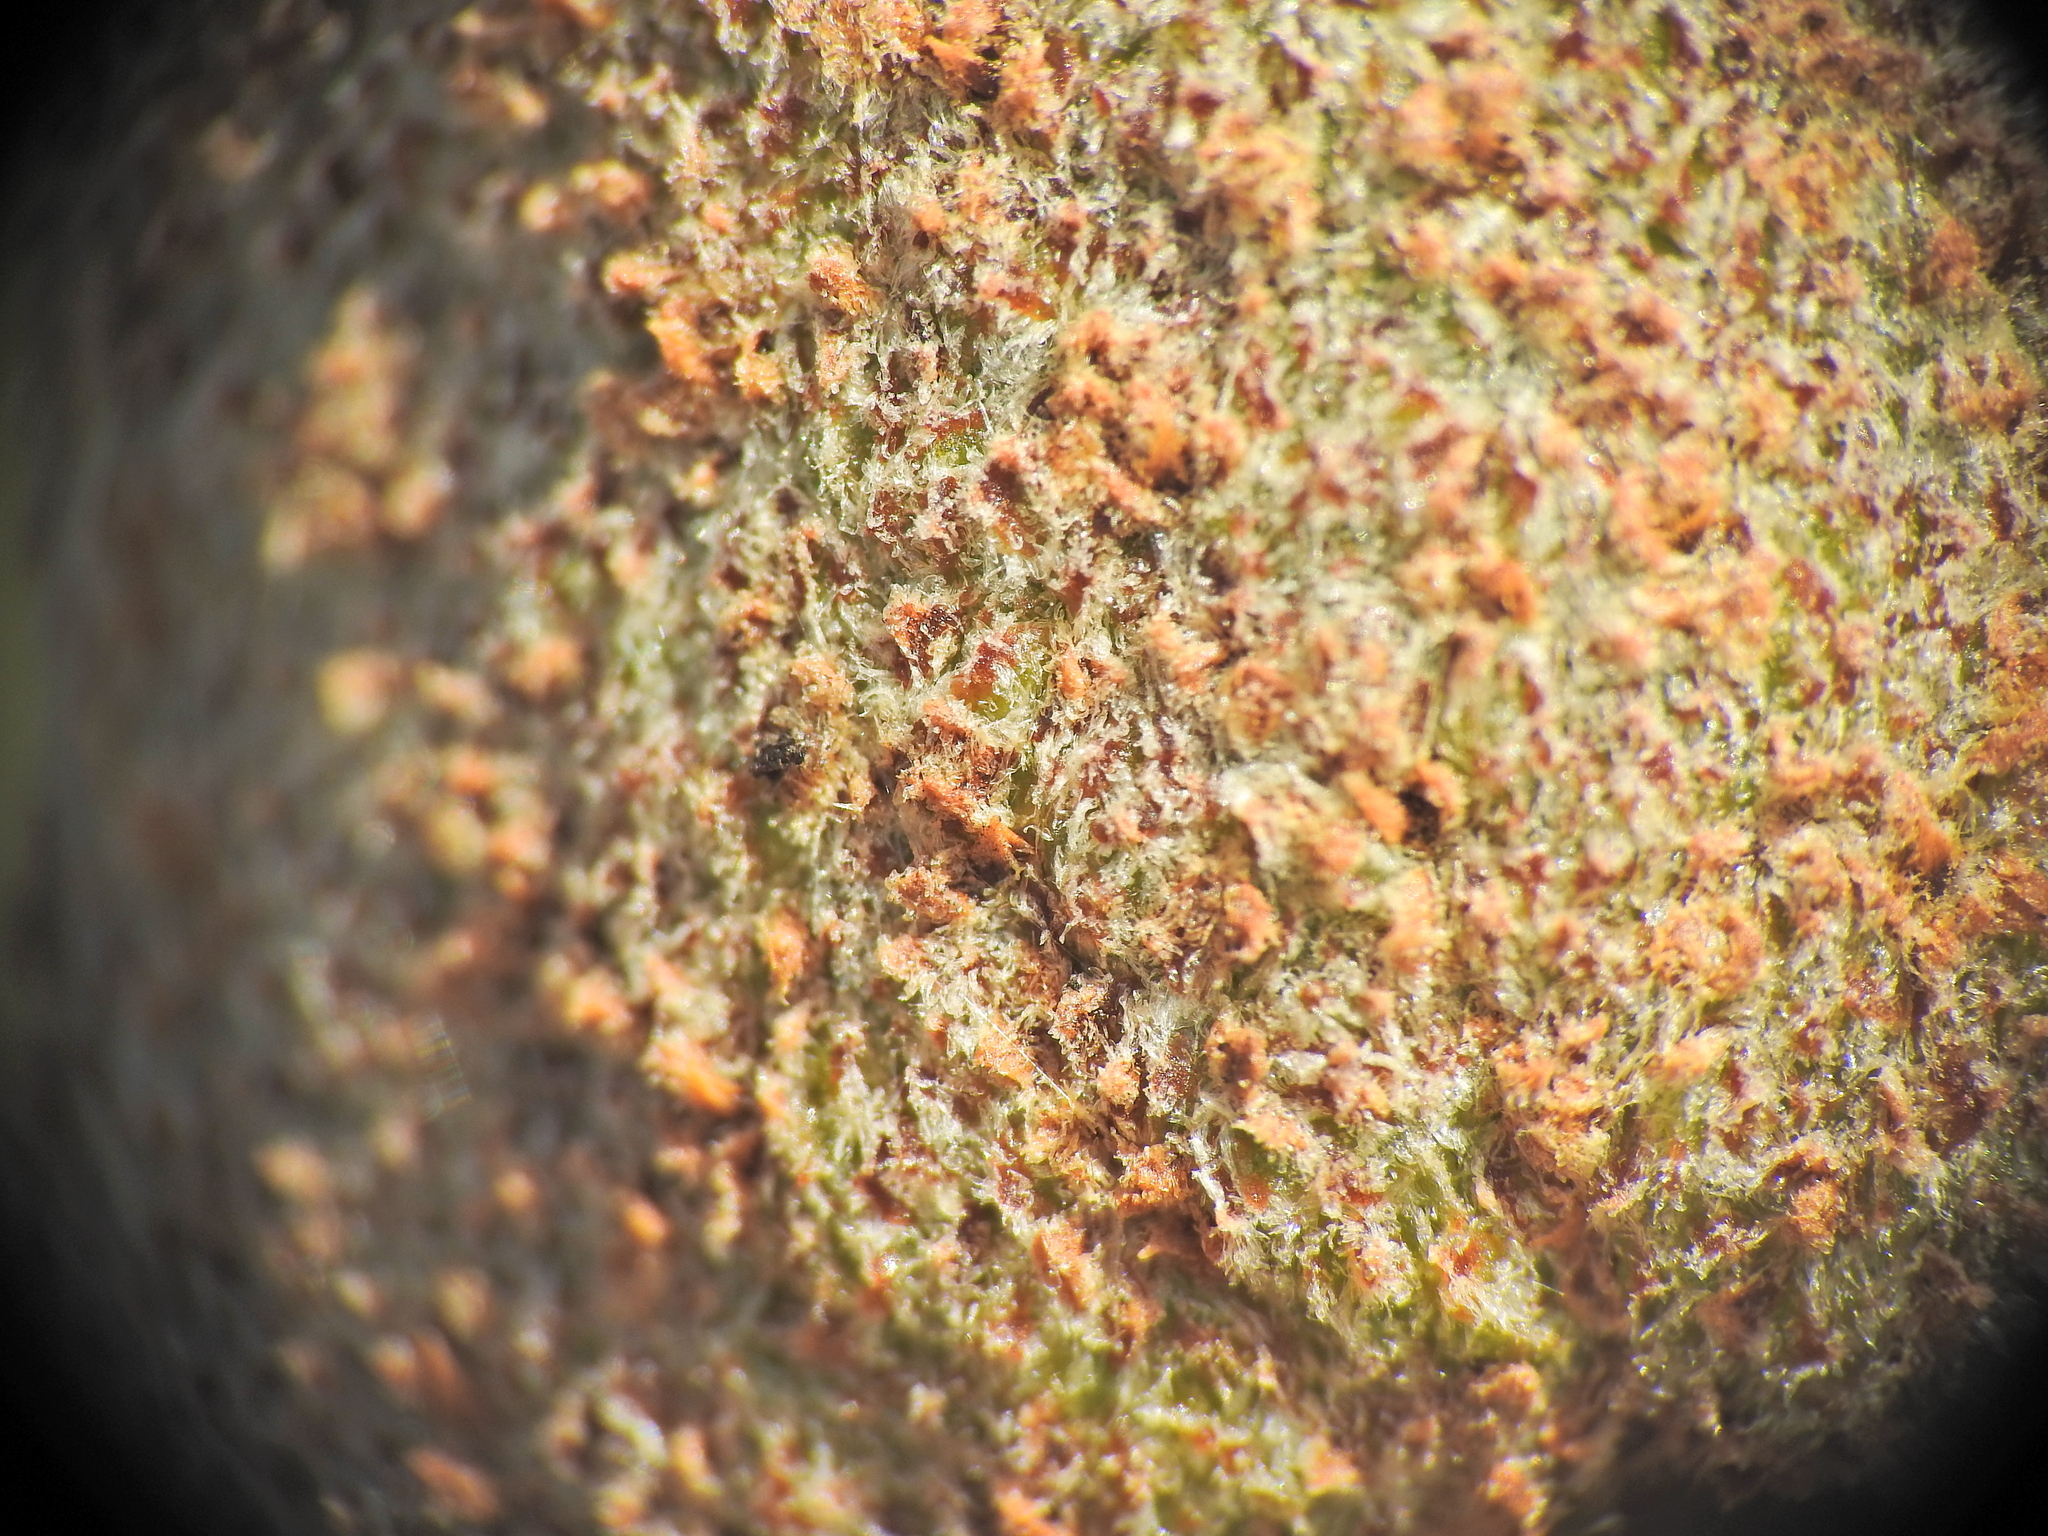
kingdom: Plantae
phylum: Tracheophyta
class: Liliopsida
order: Asparagales
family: Asphodelaceae
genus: Xanthorrhoea
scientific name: Xanthorrhoea fulva
